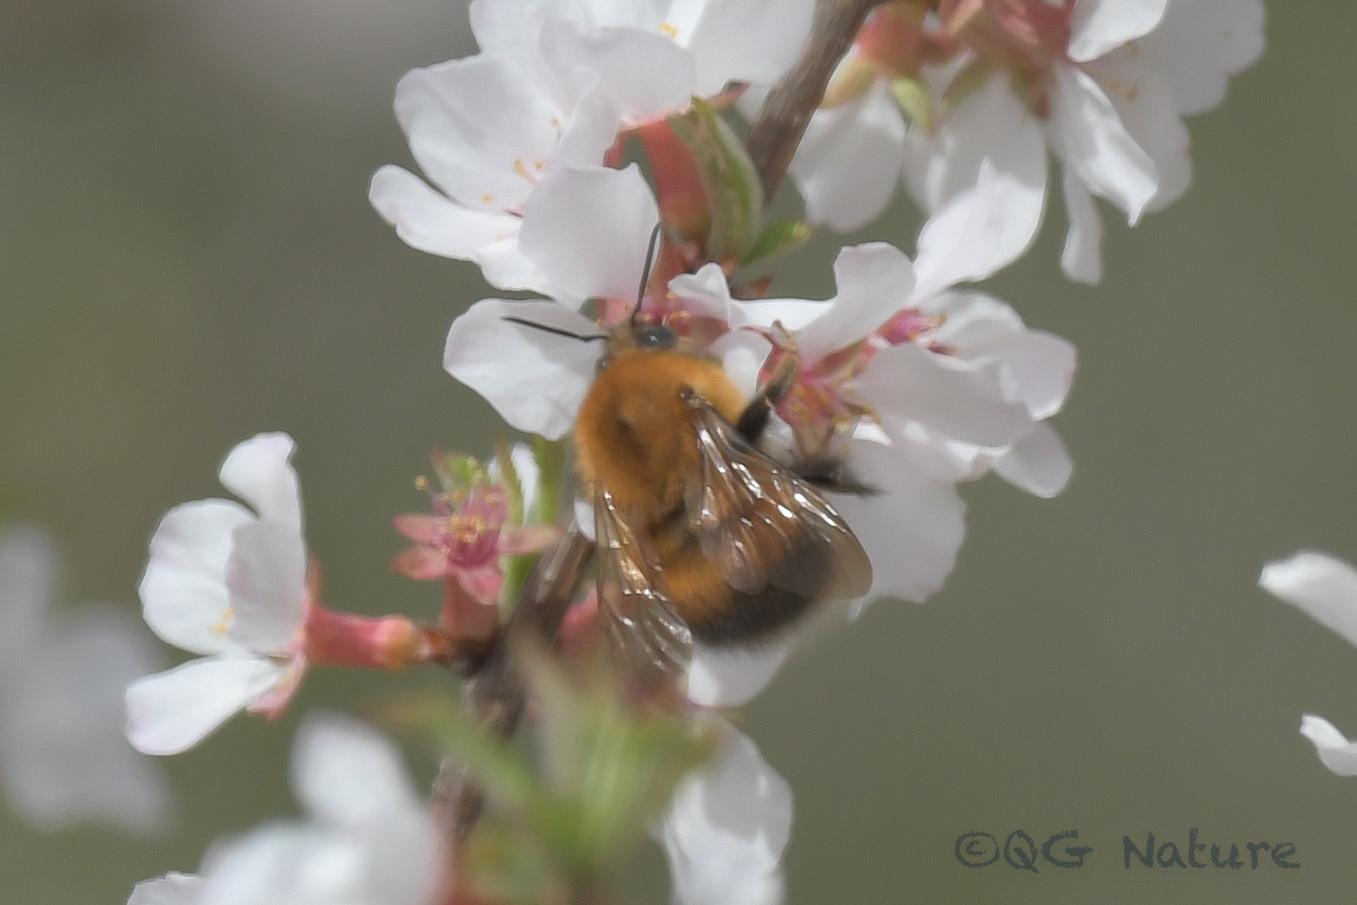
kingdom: Animalia
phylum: Arthropoda
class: Insecta
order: Hymenoptera
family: Apidae
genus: Bombus
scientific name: Bombus hypnorum
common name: New garden bumblebee
